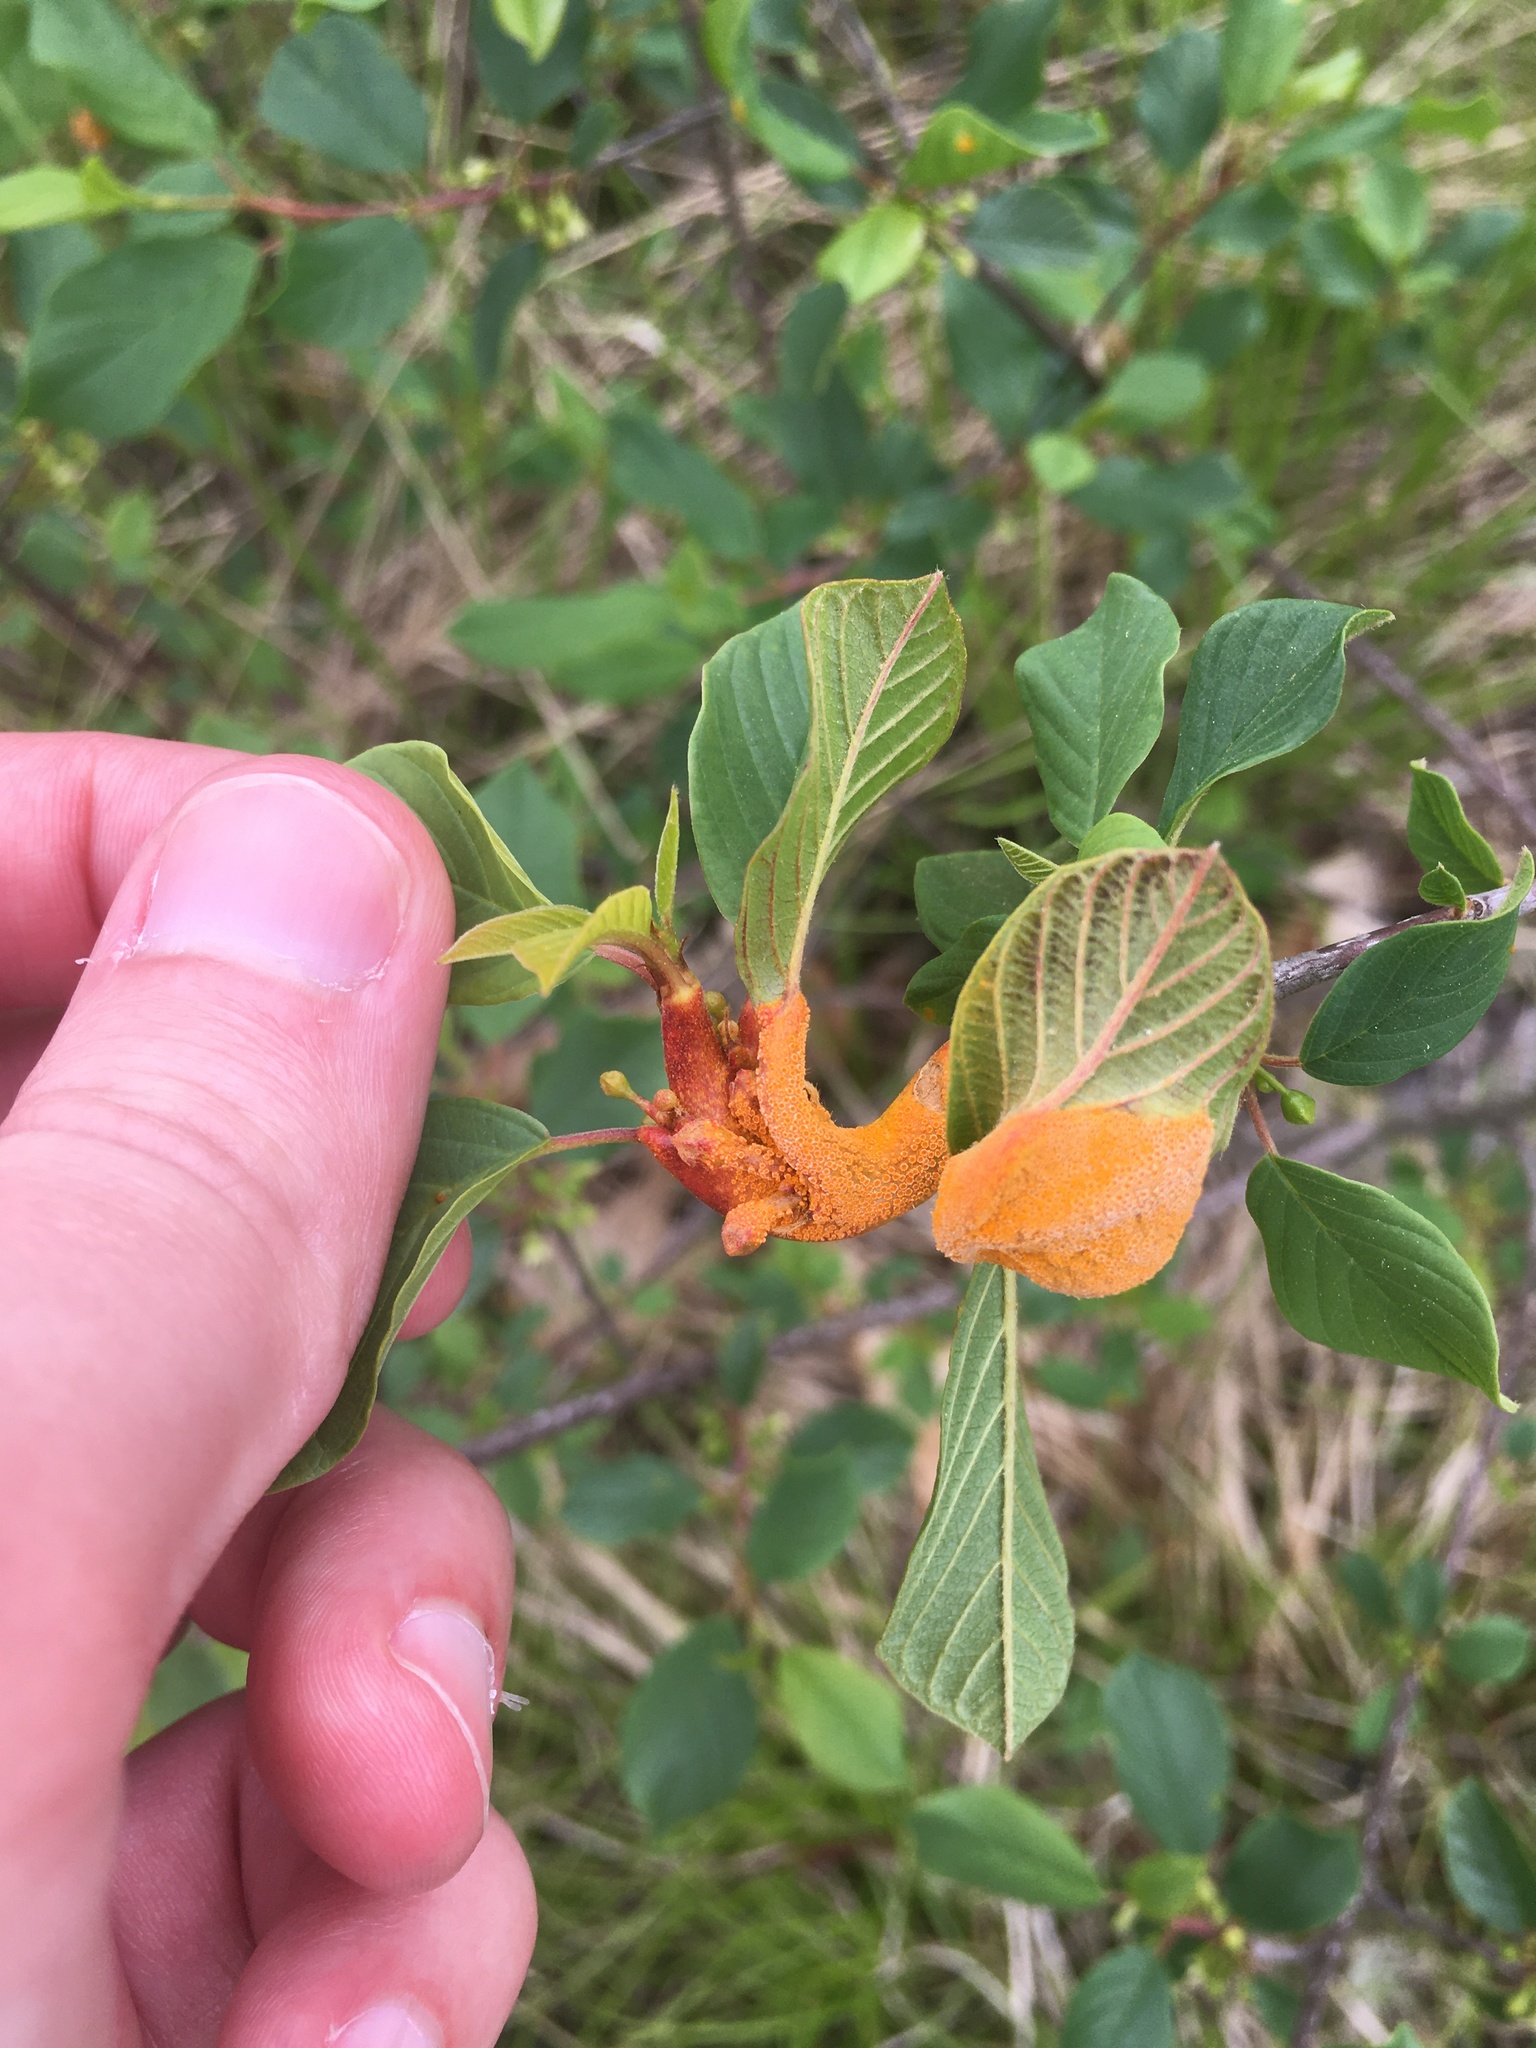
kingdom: Fungi
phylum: Basidiomycota
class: Pucciniomycetes
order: Pucciniales
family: Pucciniaceae
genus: Puccinia
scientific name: Puccinia coronata
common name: Crown rust
